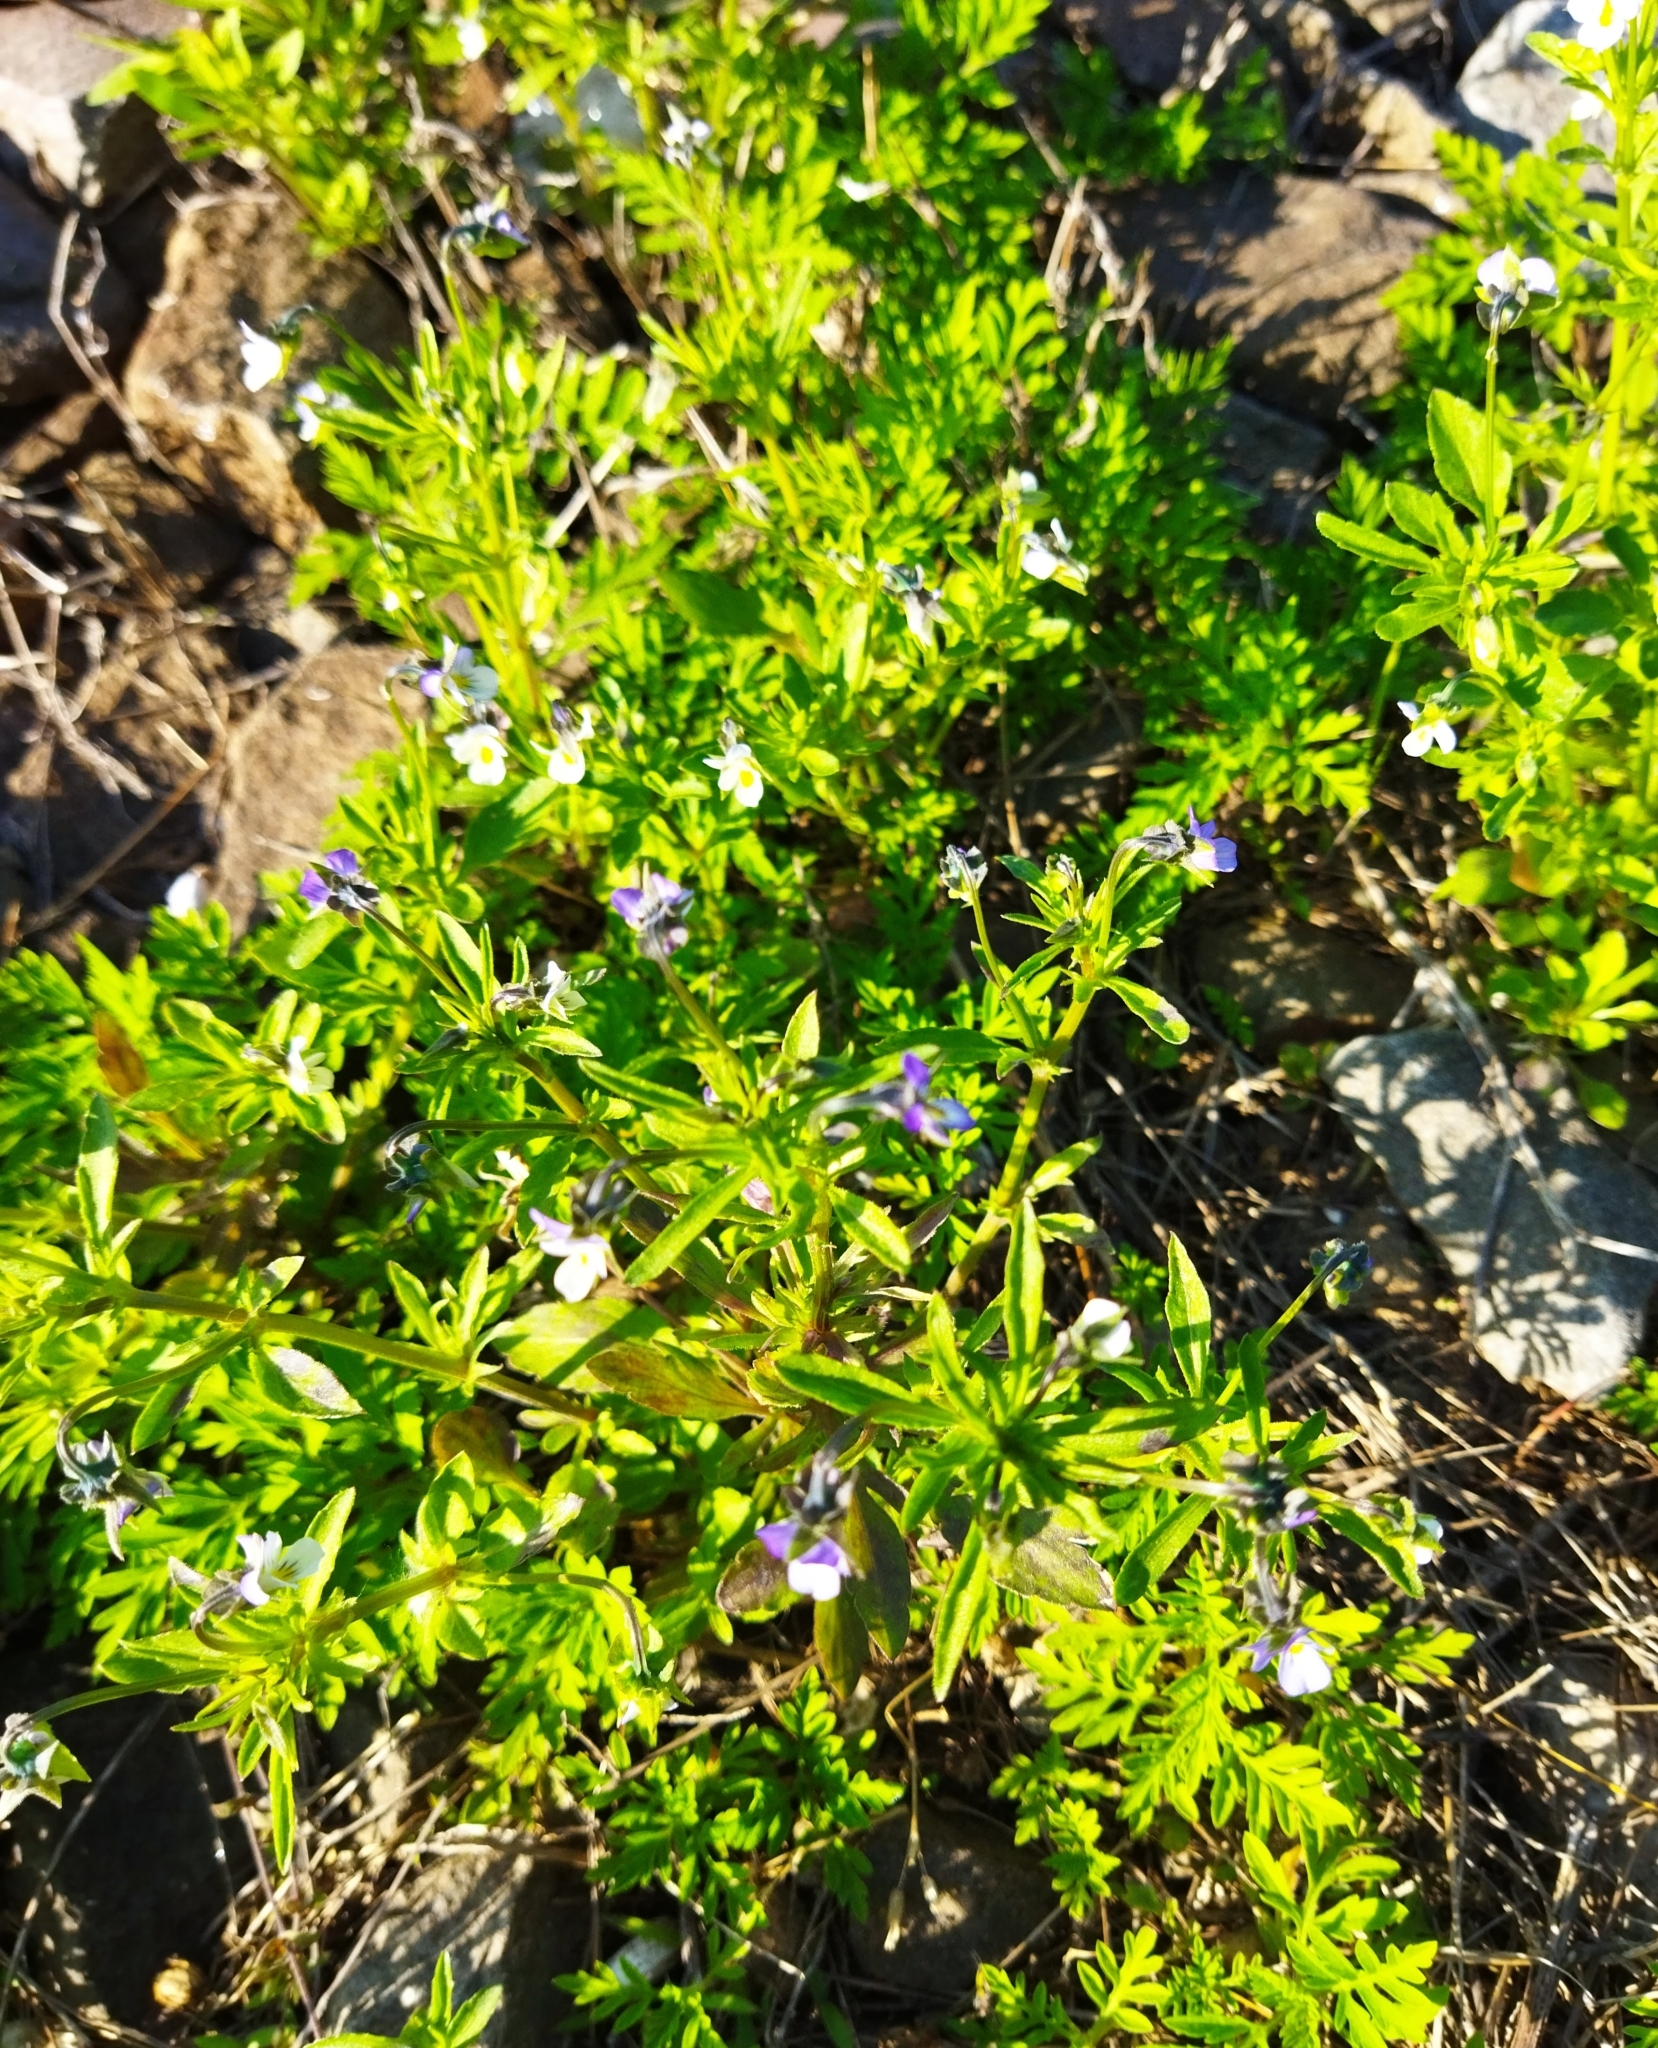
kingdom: Plantae
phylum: Tracheophyta
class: Magnoliopsida
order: Malpighiales
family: Violaceae
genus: Viola
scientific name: Viola arvensis
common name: Field pansy
